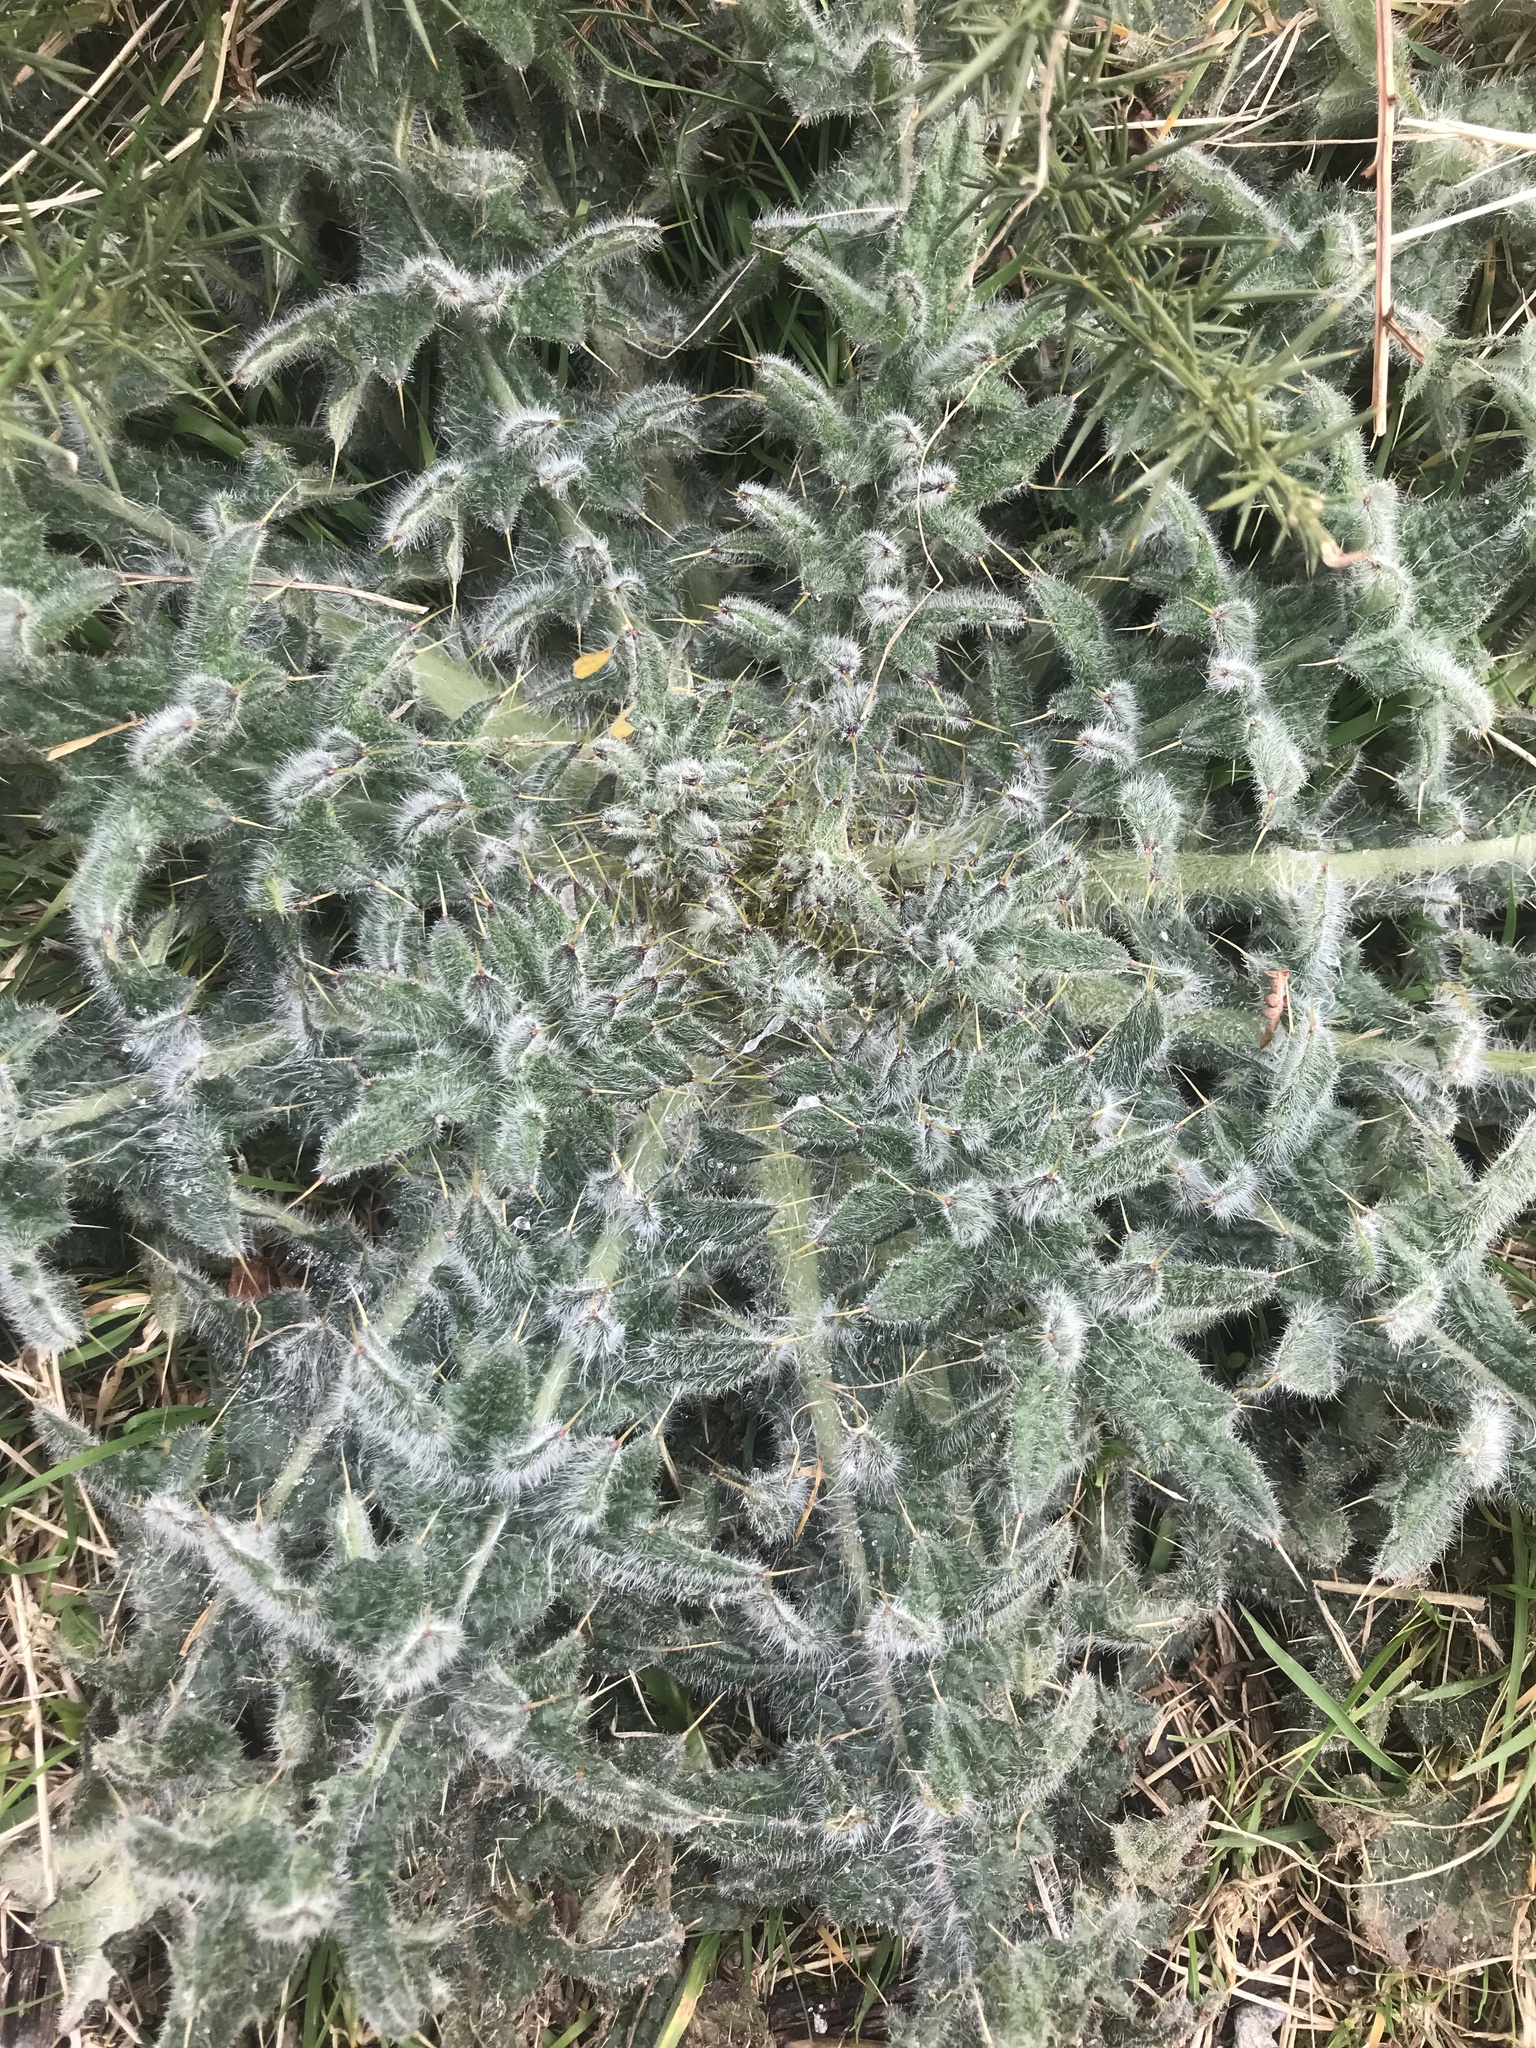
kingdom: Plantae
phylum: Tracheophyta
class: Magnoliopsida
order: Asterales
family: Asteraceae
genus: Cirsium
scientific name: Cirsium vulgare
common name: Bull thistle
